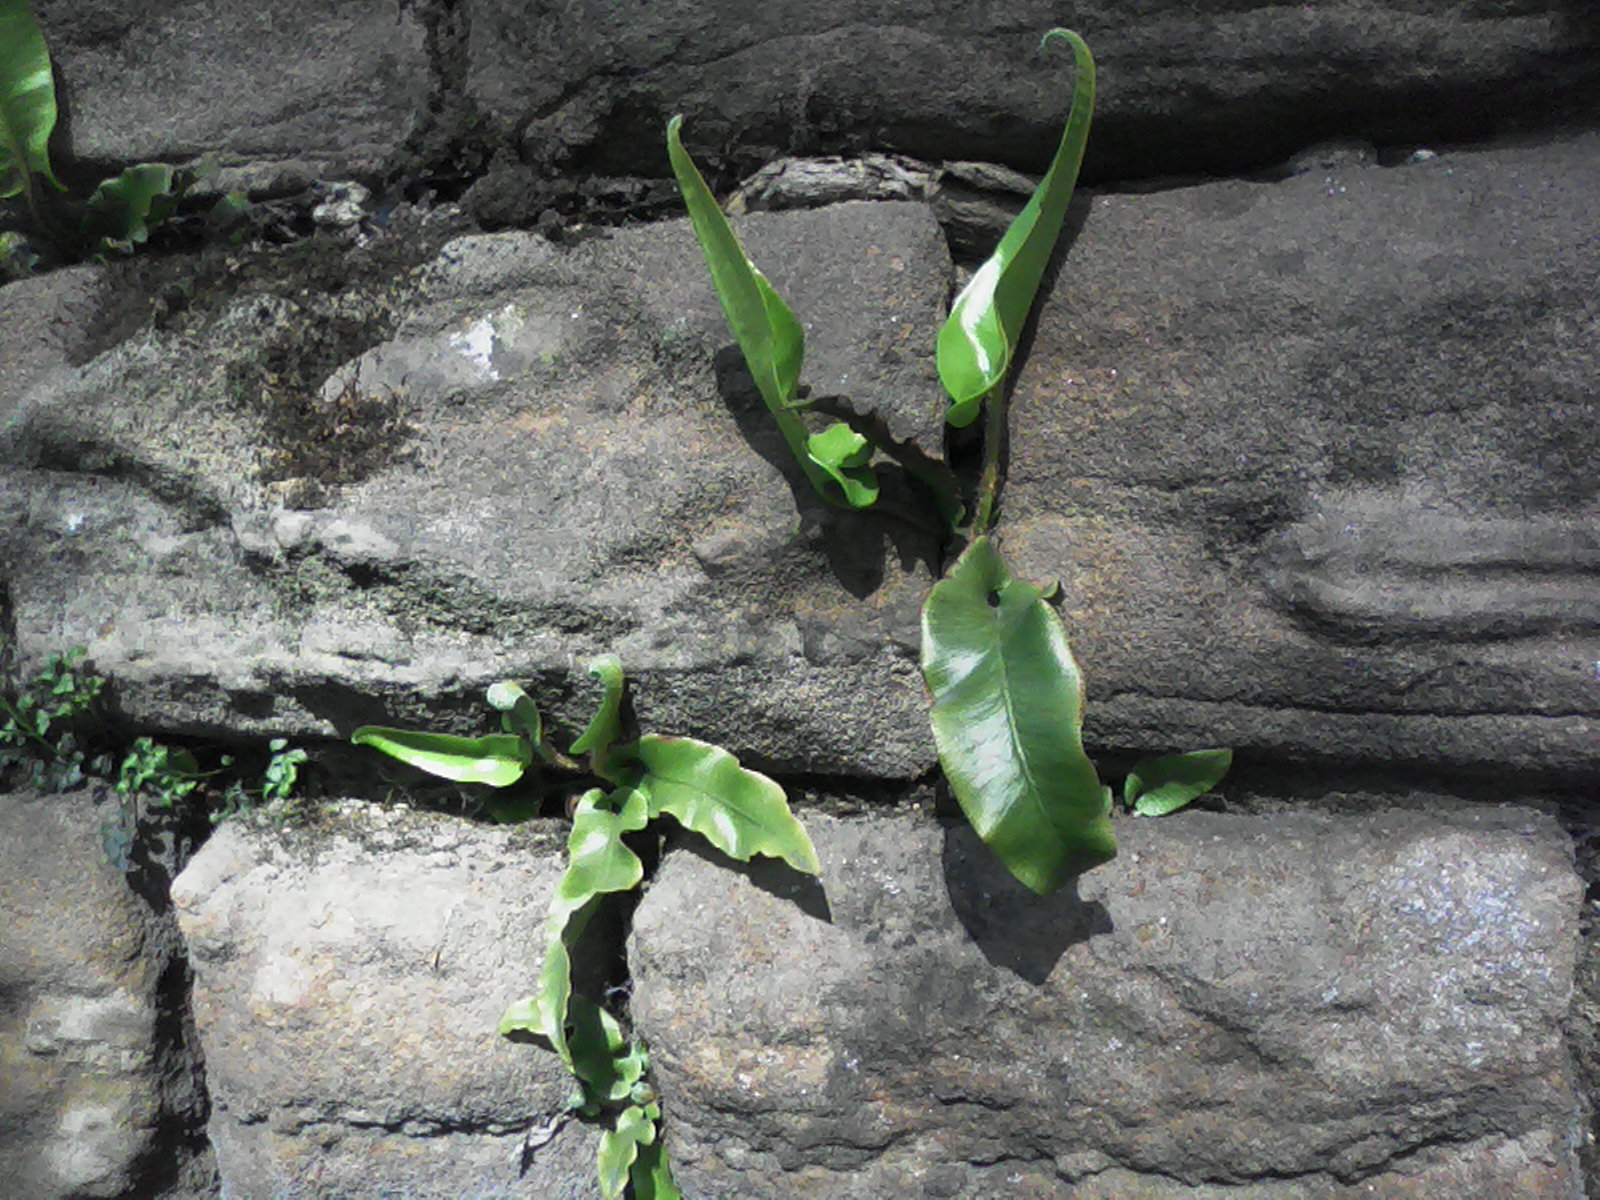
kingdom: Plantae
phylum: Tracheophyta
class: Polypodiopsida
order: Polypodiales
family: Aspleniaceae
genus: Asplenium
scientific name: Asplenium scolopendrium
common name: Hart's-tongue fern
